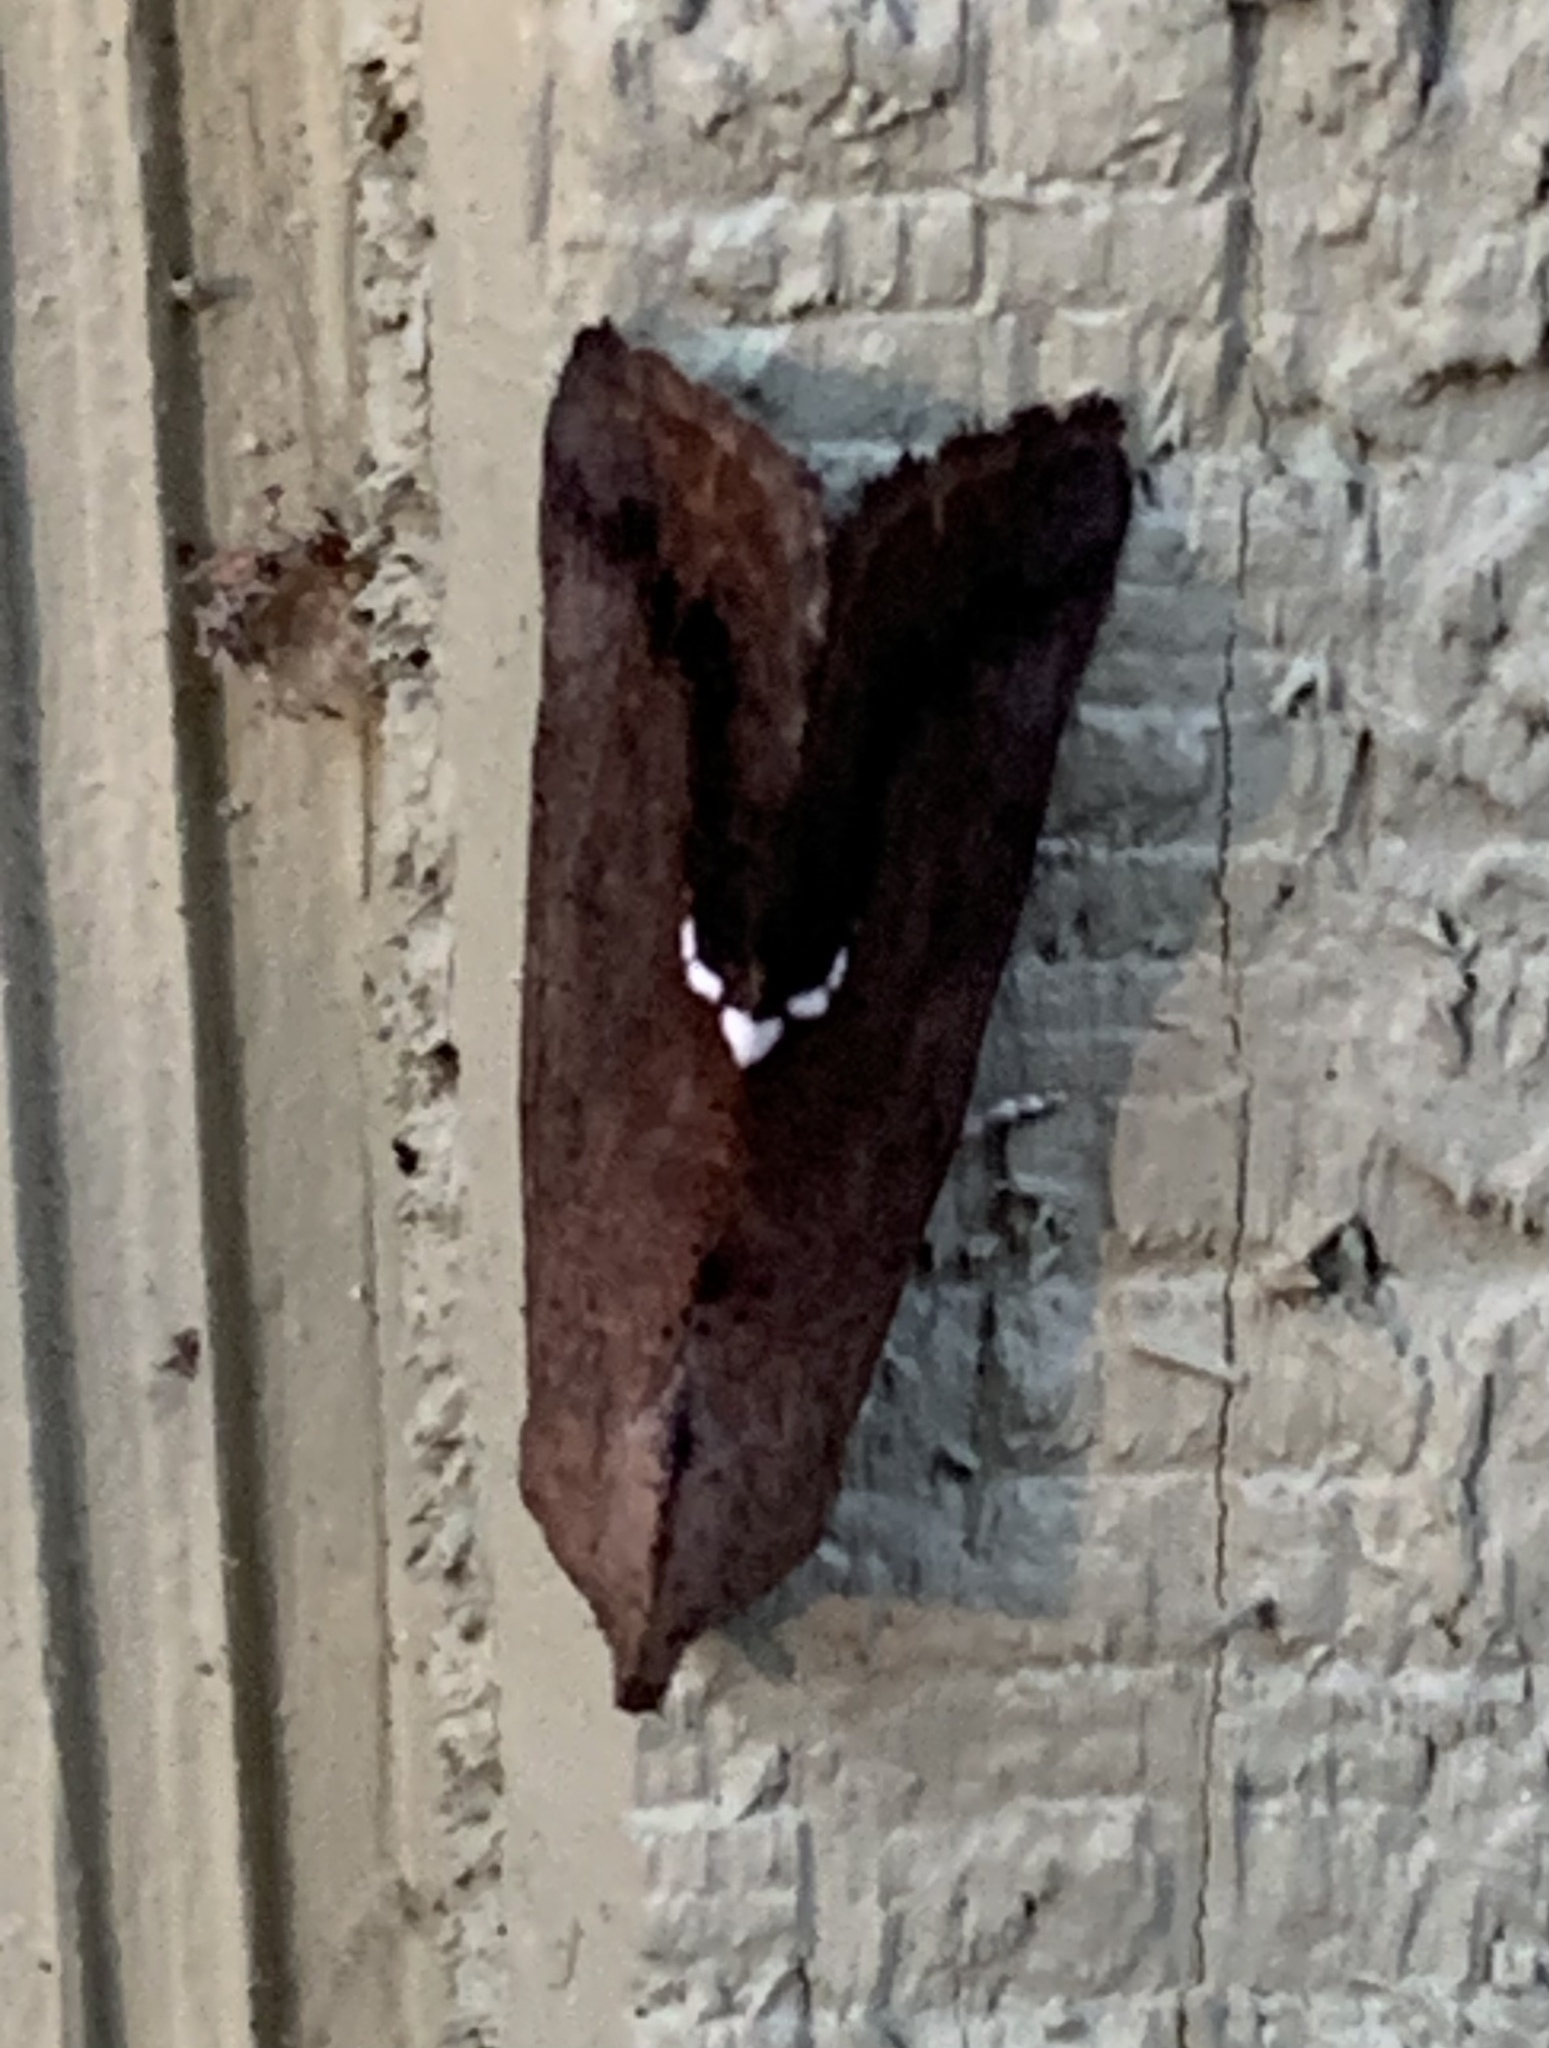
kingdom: Animalia
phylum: Arthropoda
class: Insecta
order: Lepidoptera
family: Erebidae
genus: Hypsoropha
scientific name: Hypsoropha hormos
